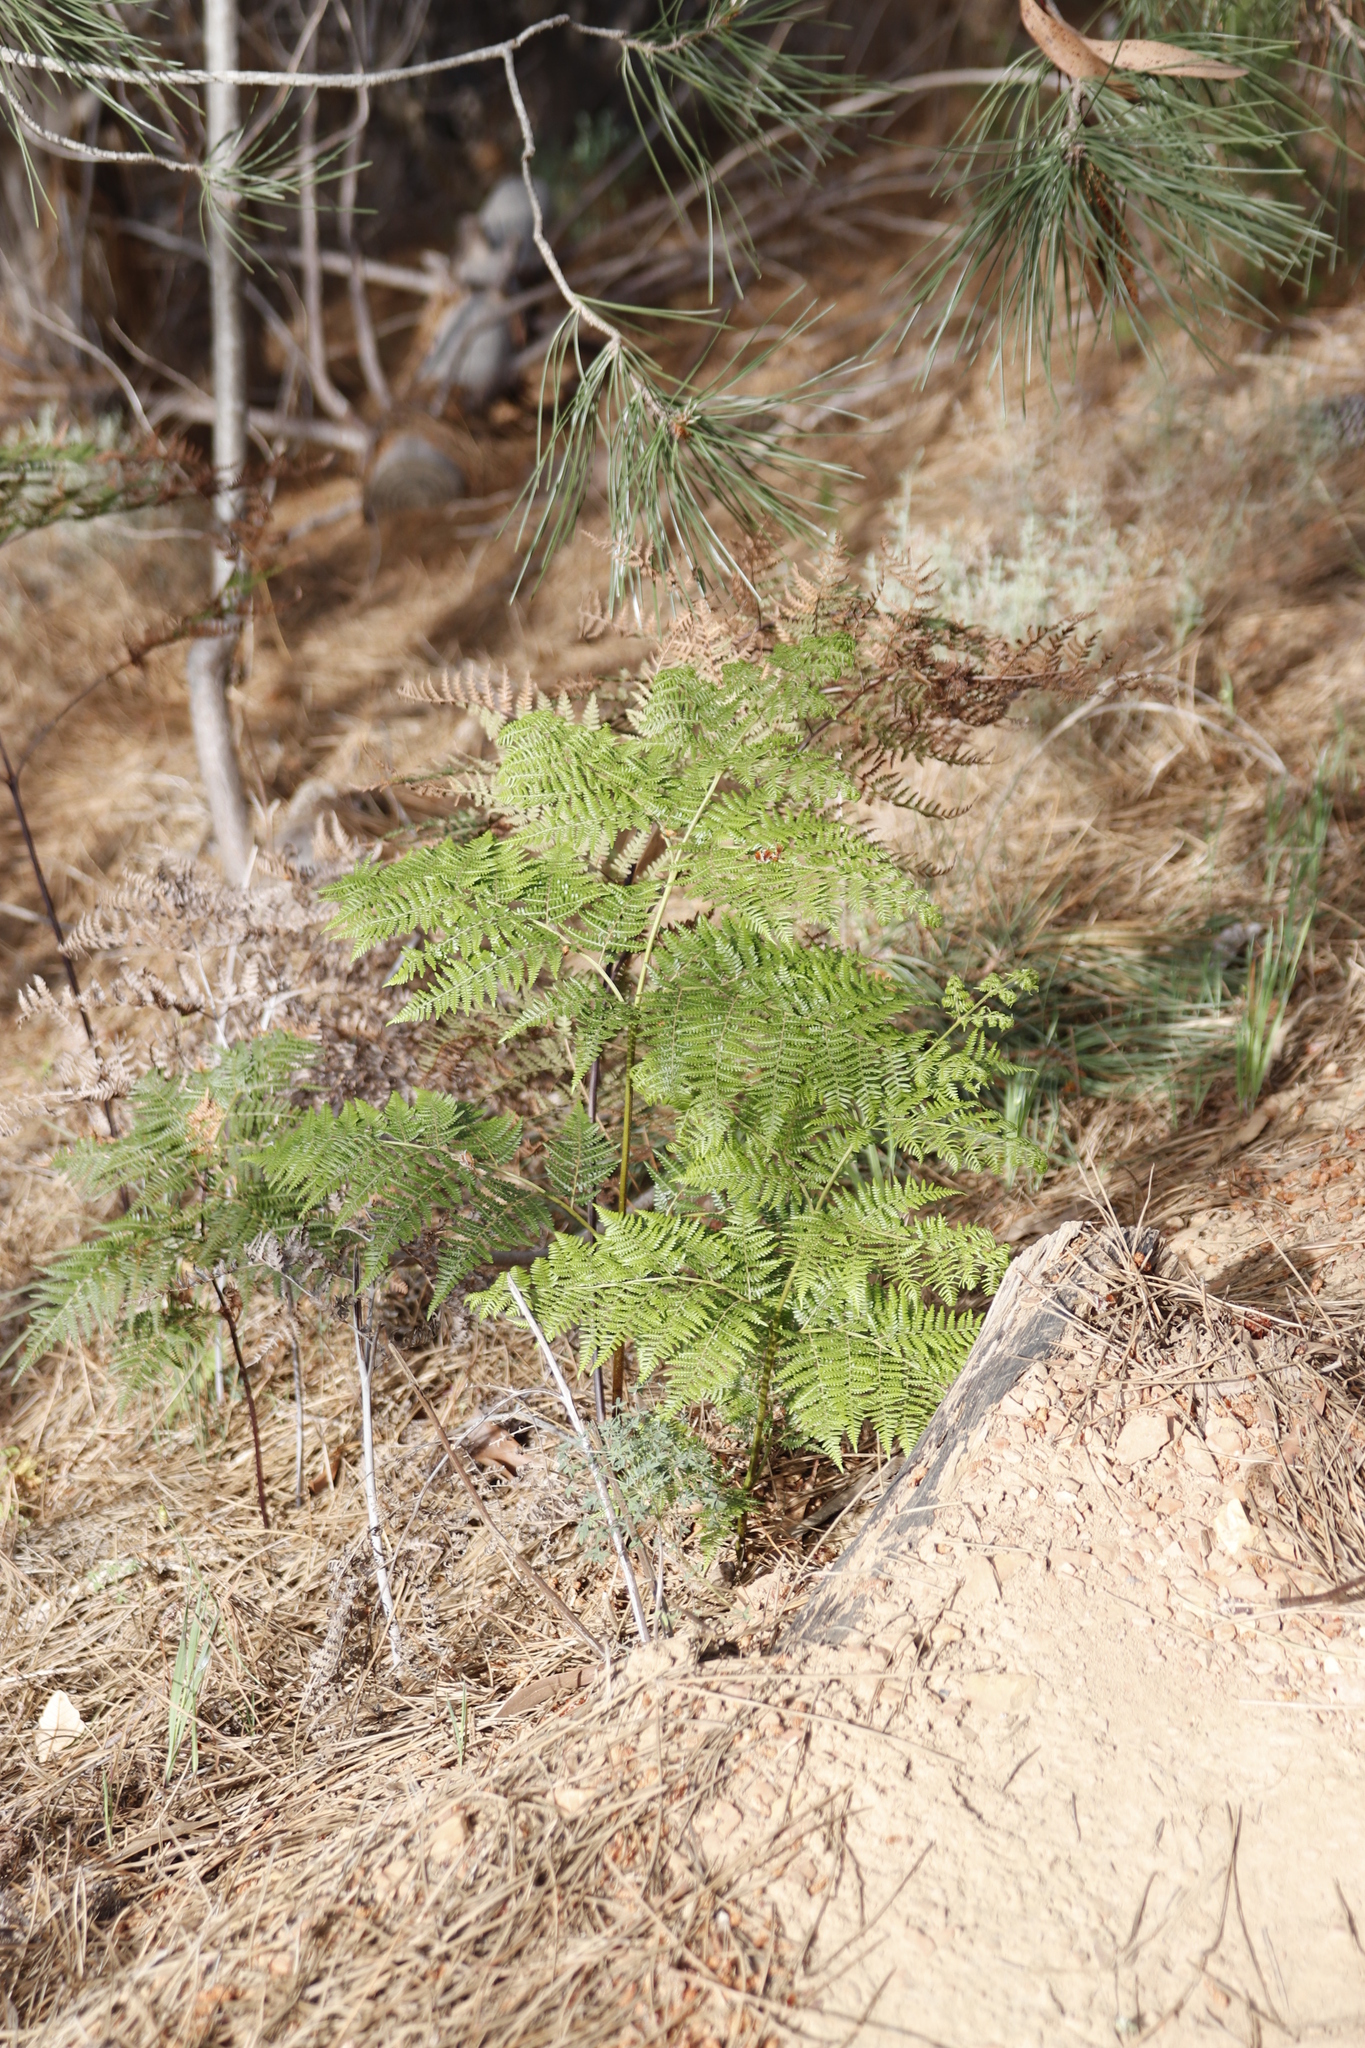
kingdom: Plantae
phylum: Tracheophyta
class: Polypodiopsida
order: Polypodiales
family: Dennstaedtiaceae
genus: Pteridium
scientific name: Pteridium aquilinum
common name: Bracken
